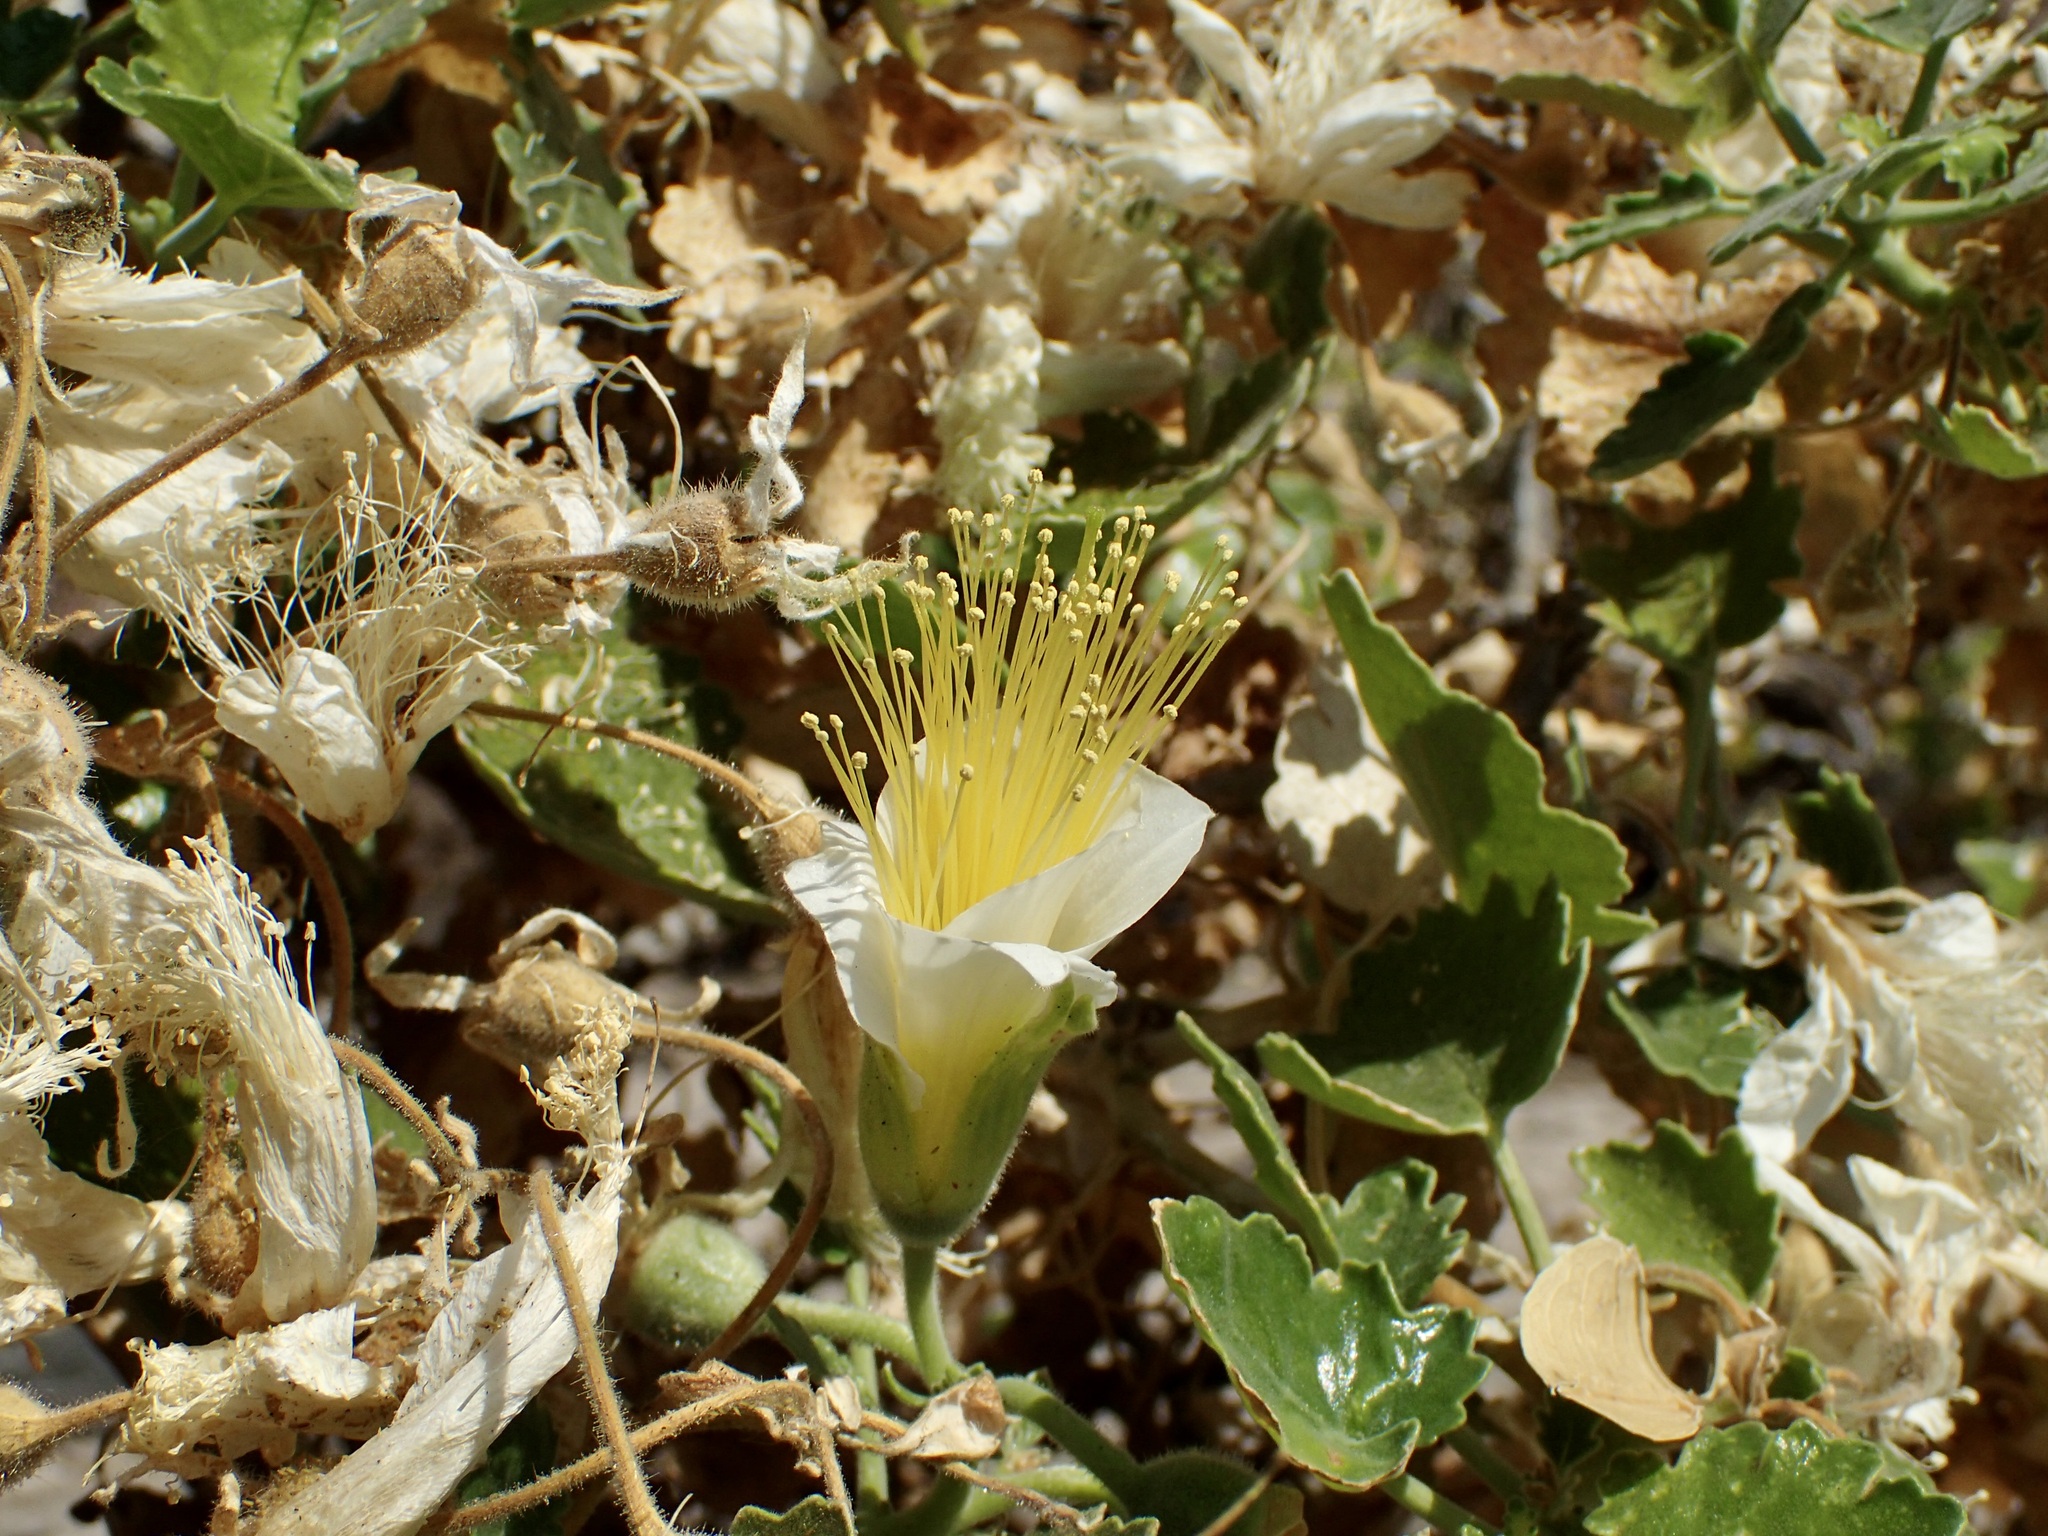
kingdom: Plantae
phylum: Tracheophyta
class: Magnoliopsida
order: Cornales
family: Loasaceae
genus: Eucnide
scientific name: Eucnide hypomalaca
